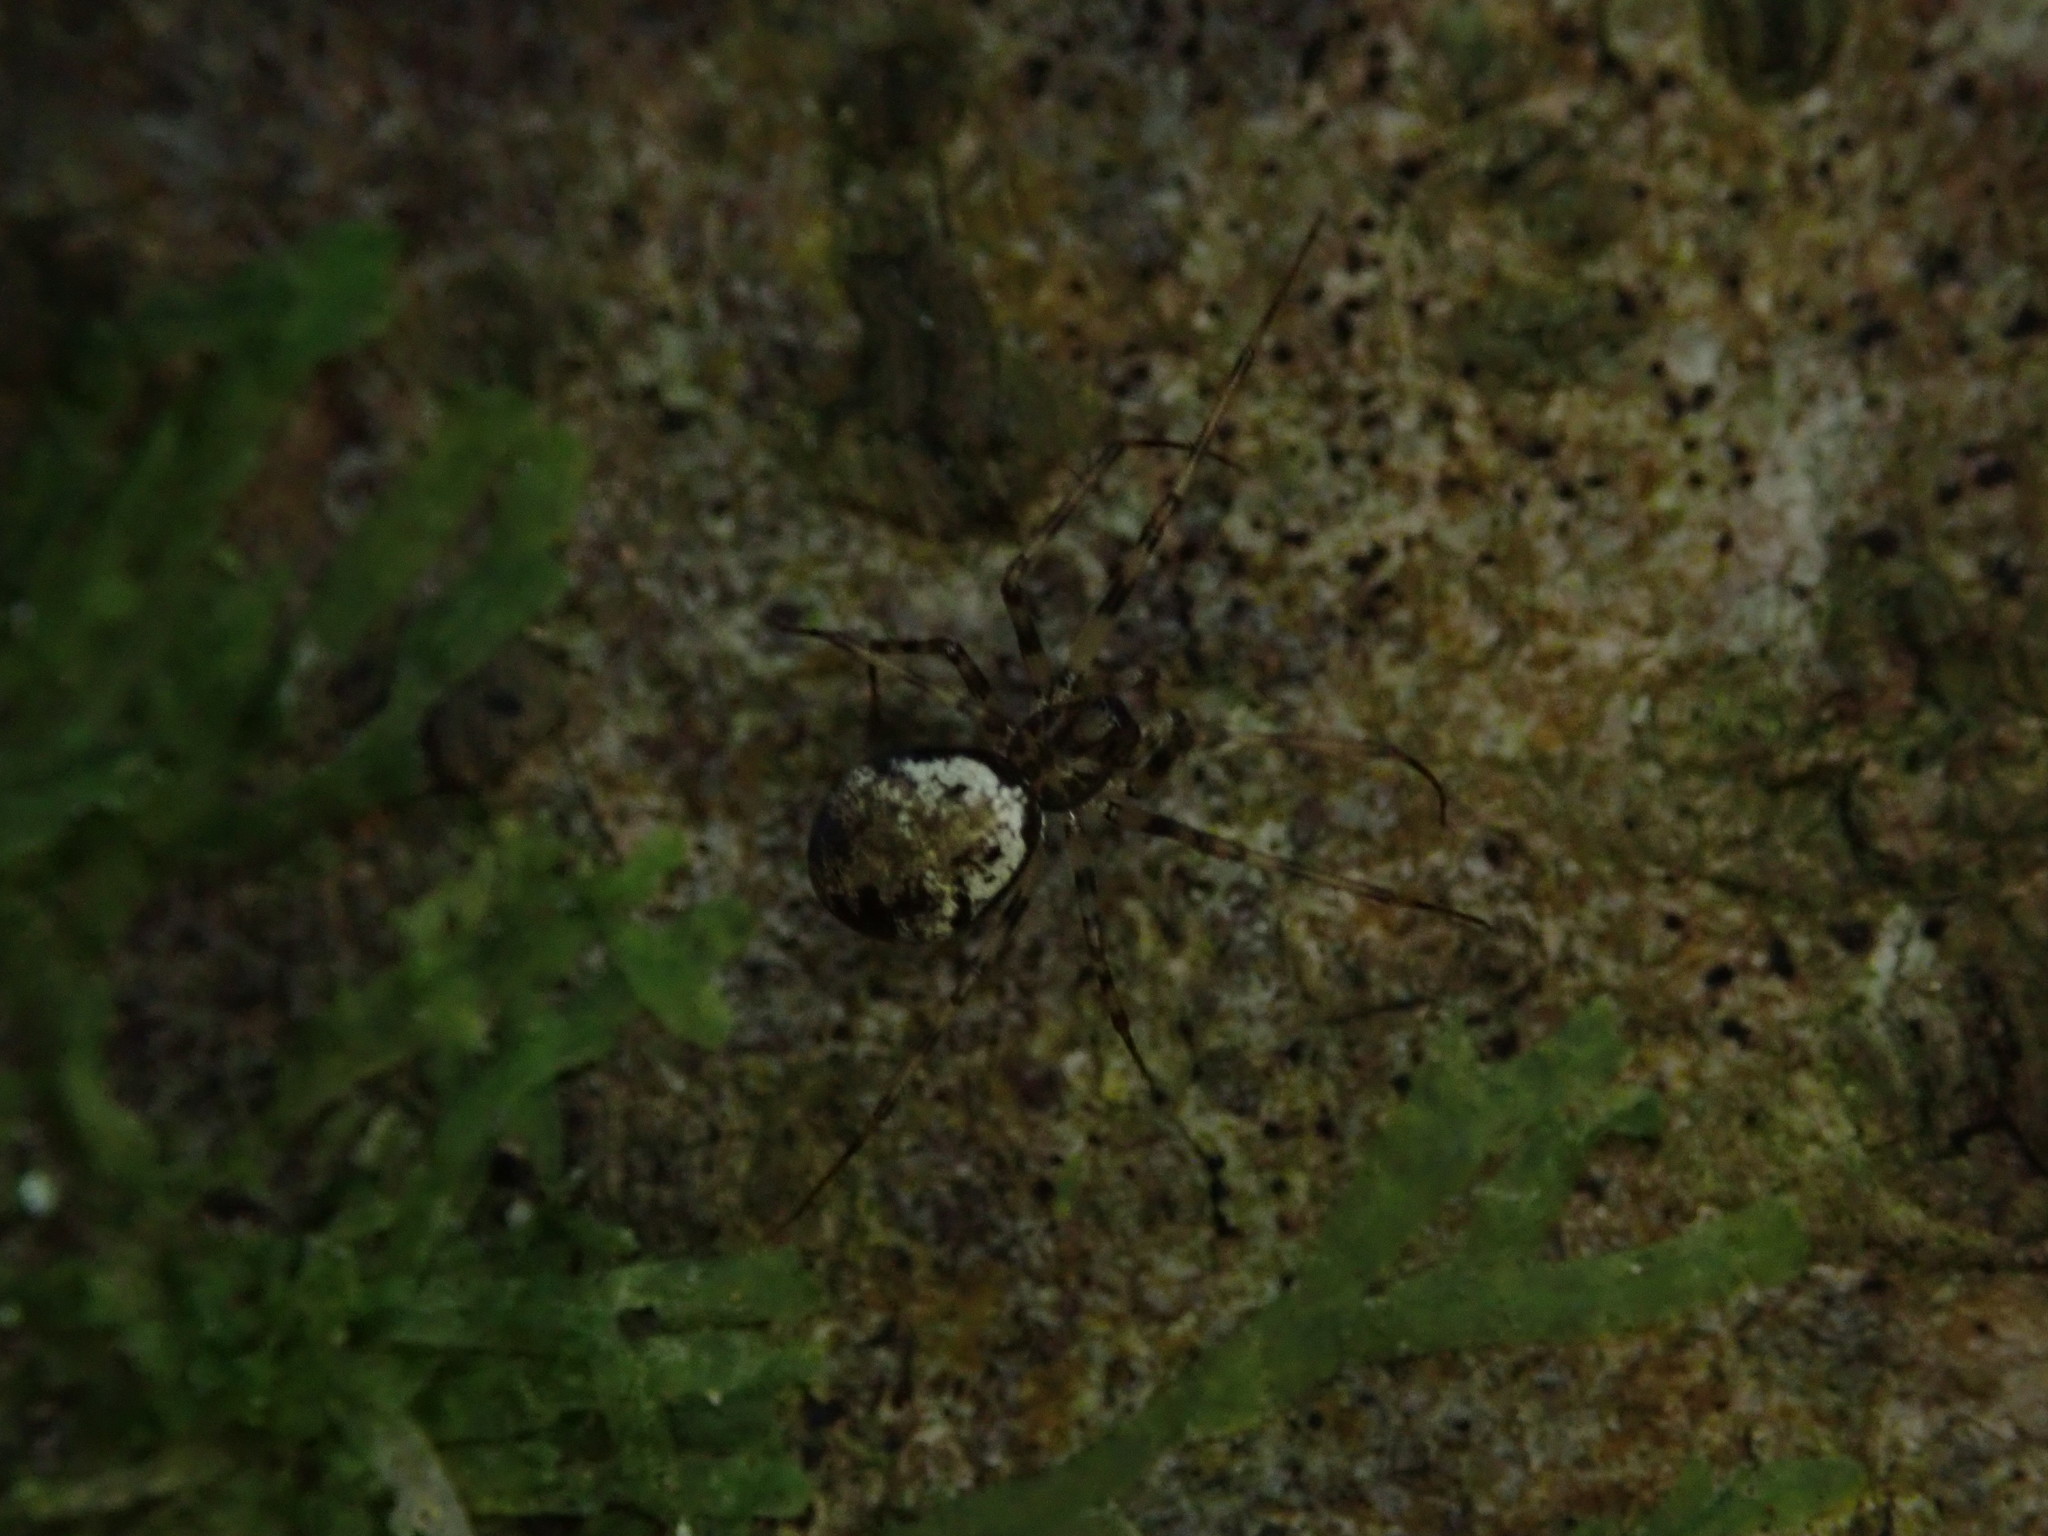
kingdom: Animalia
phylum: Arthropoda
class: Arachnida
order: Araneae
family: Linyphiidae
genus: Drapetisca
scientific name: Drapetisca socialis
